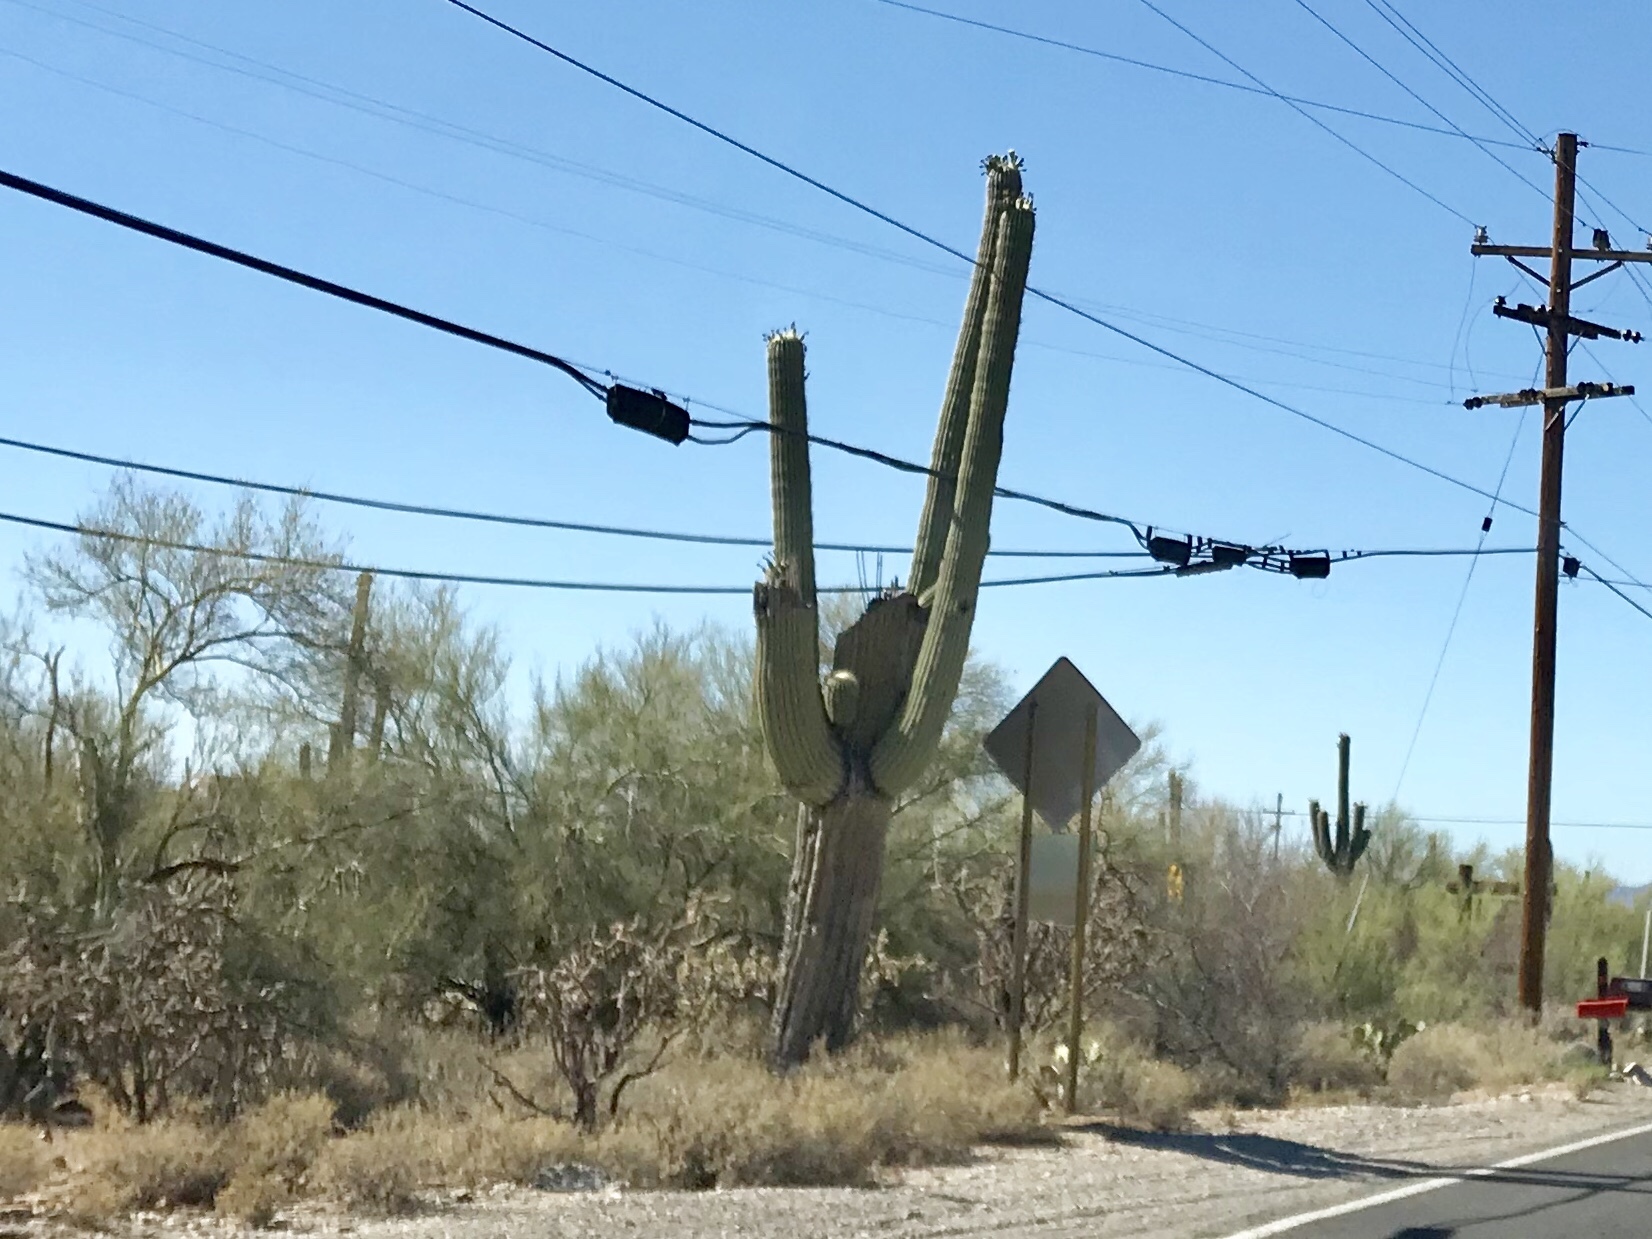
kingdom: Plantae
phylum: Tracheophyta
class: Magnoliopsida
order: Caryophyllales
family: Cactaceae
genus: Carnegiea
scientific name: Carnegiea gigantea
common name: Saguaro
